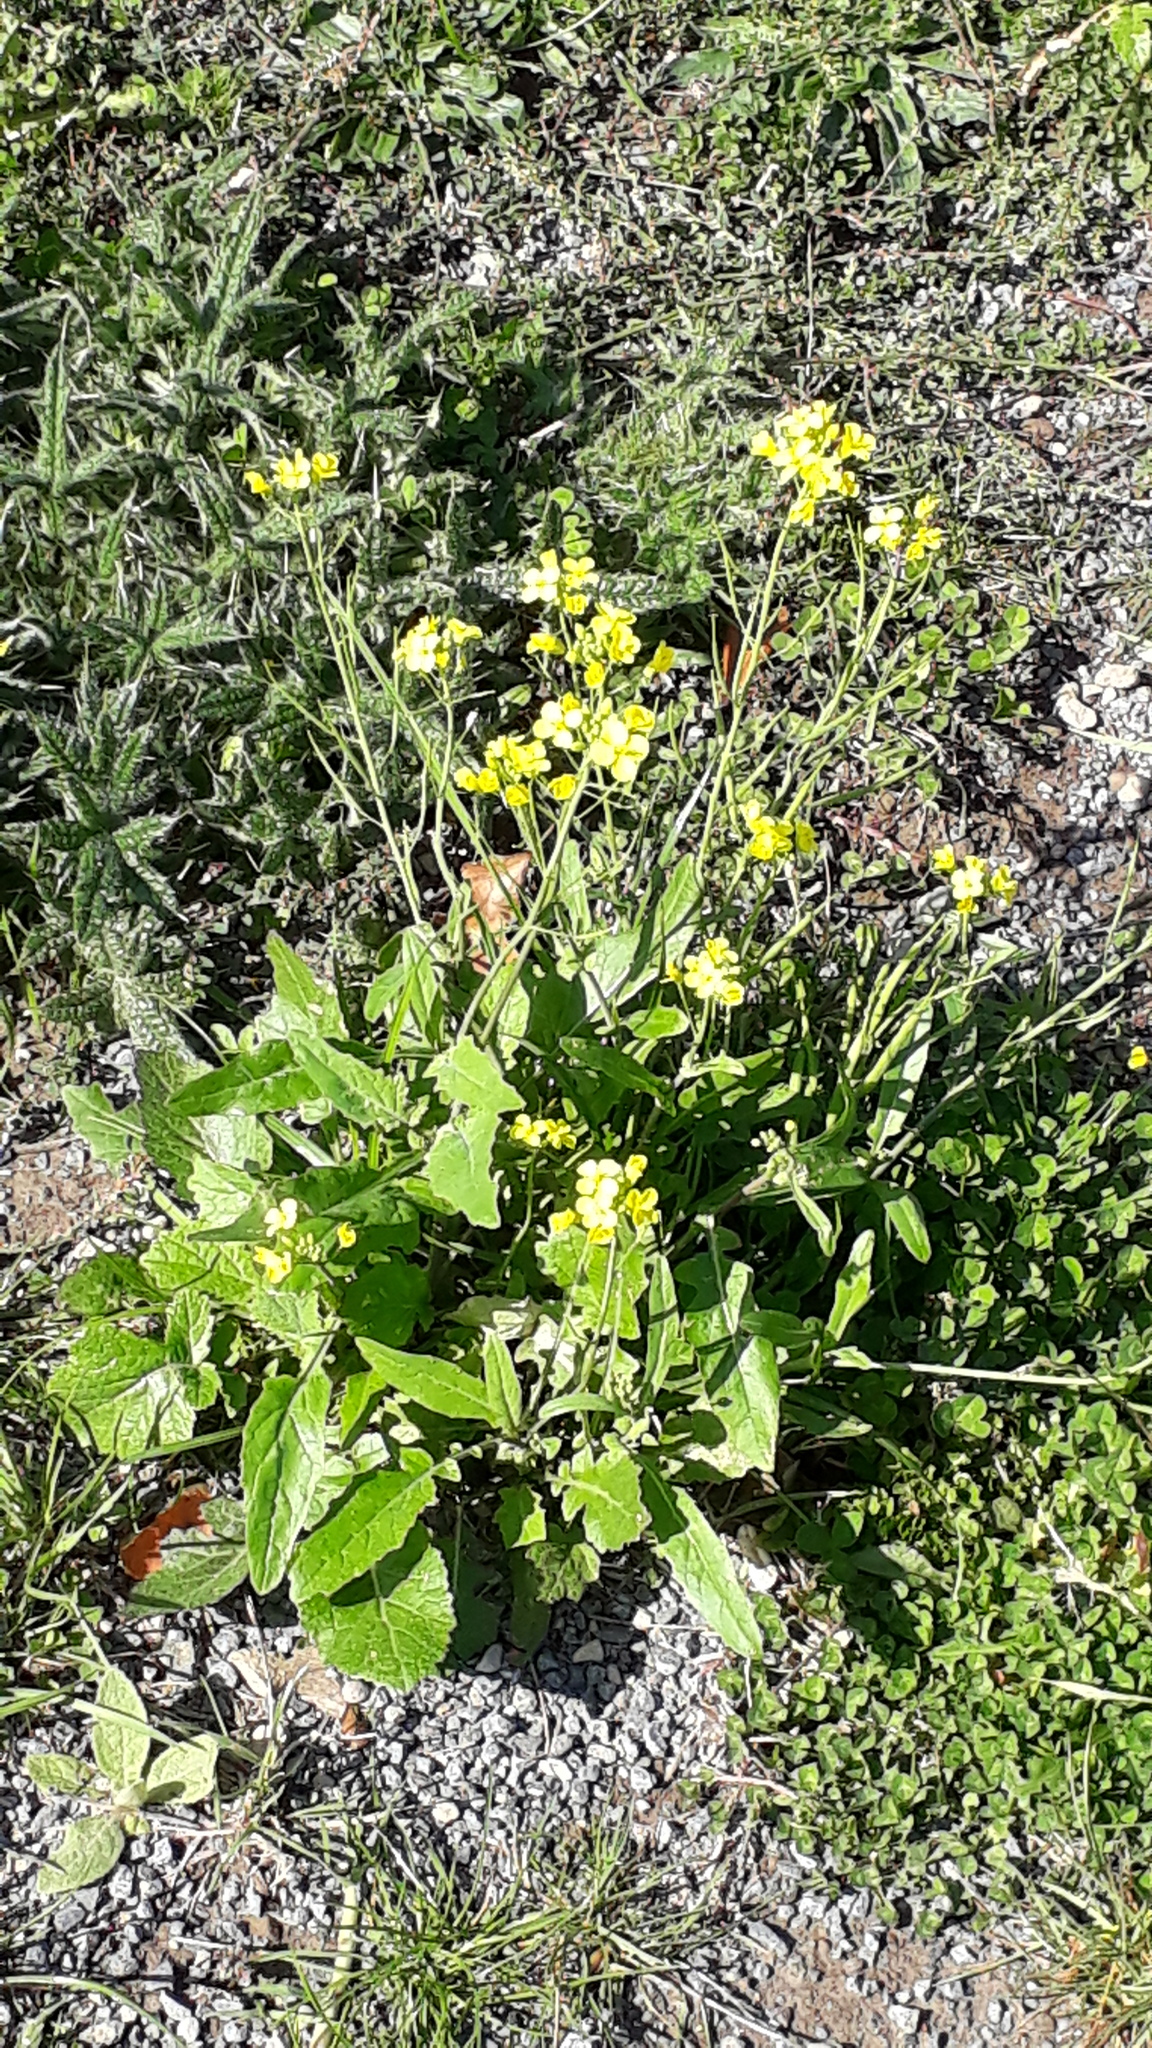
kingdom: Plantae
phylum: Tracheophyta
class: Magnoliopsida
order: Brassicales
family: Brassicaceae
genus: Brassica
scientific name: Brassica rapa
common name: Field mustard
